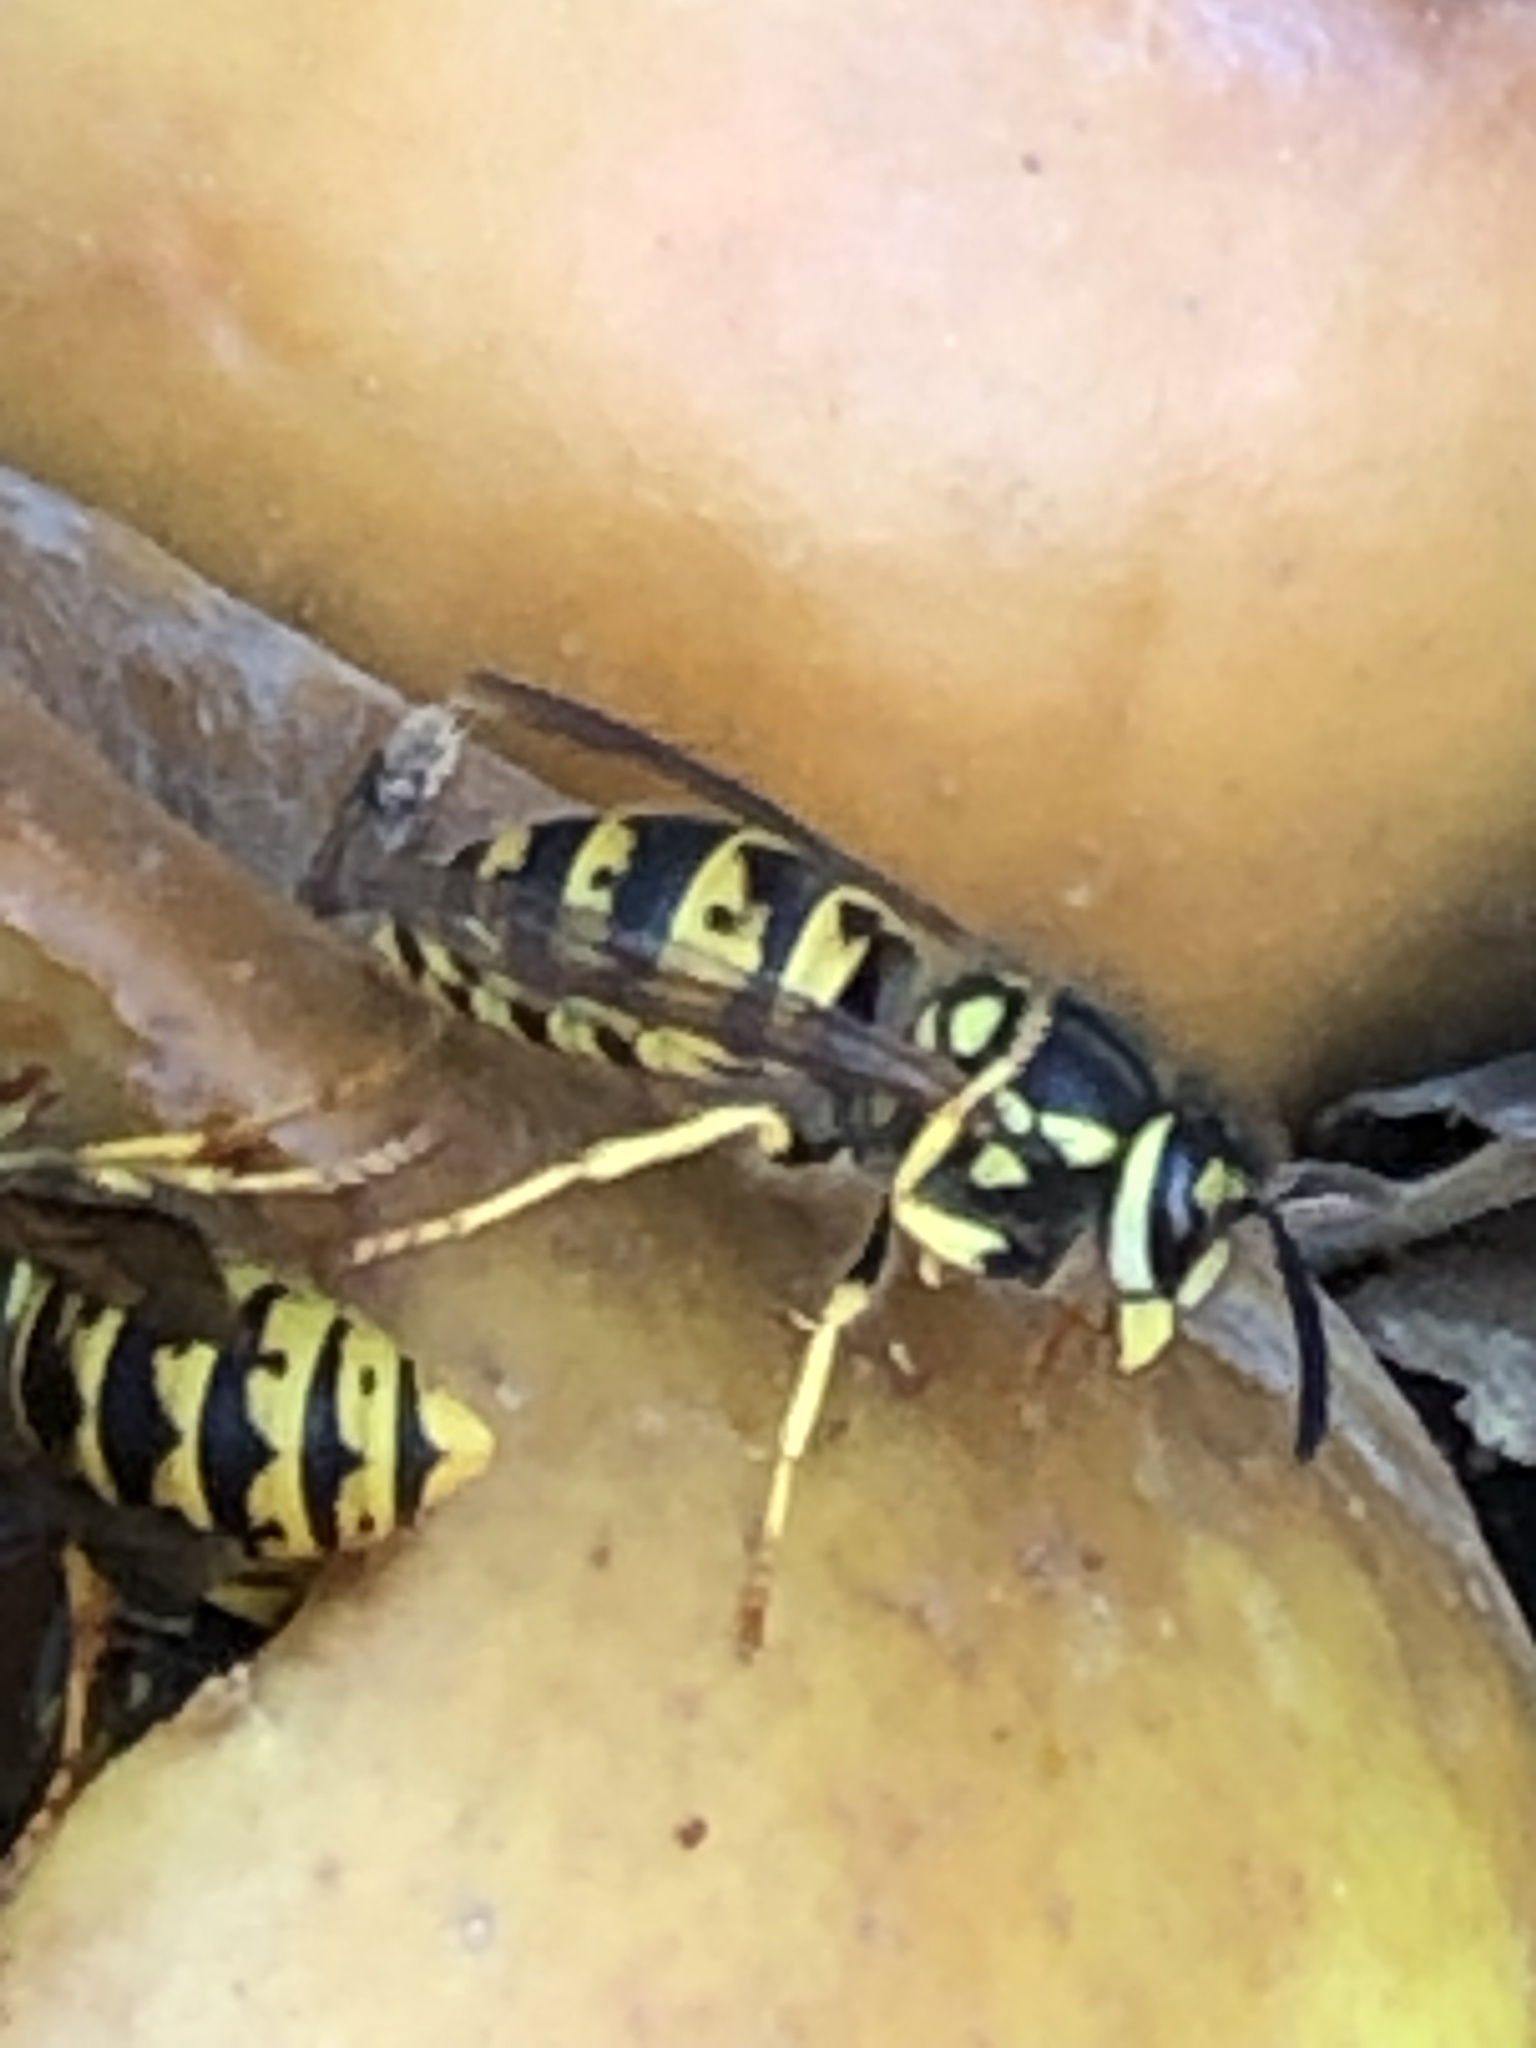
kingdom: Animalia
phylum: Arthropoda
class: Insecta
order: Hymenoptera
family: Vespidae
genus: Vespula
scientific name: Vespula germanica
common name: German wasp
